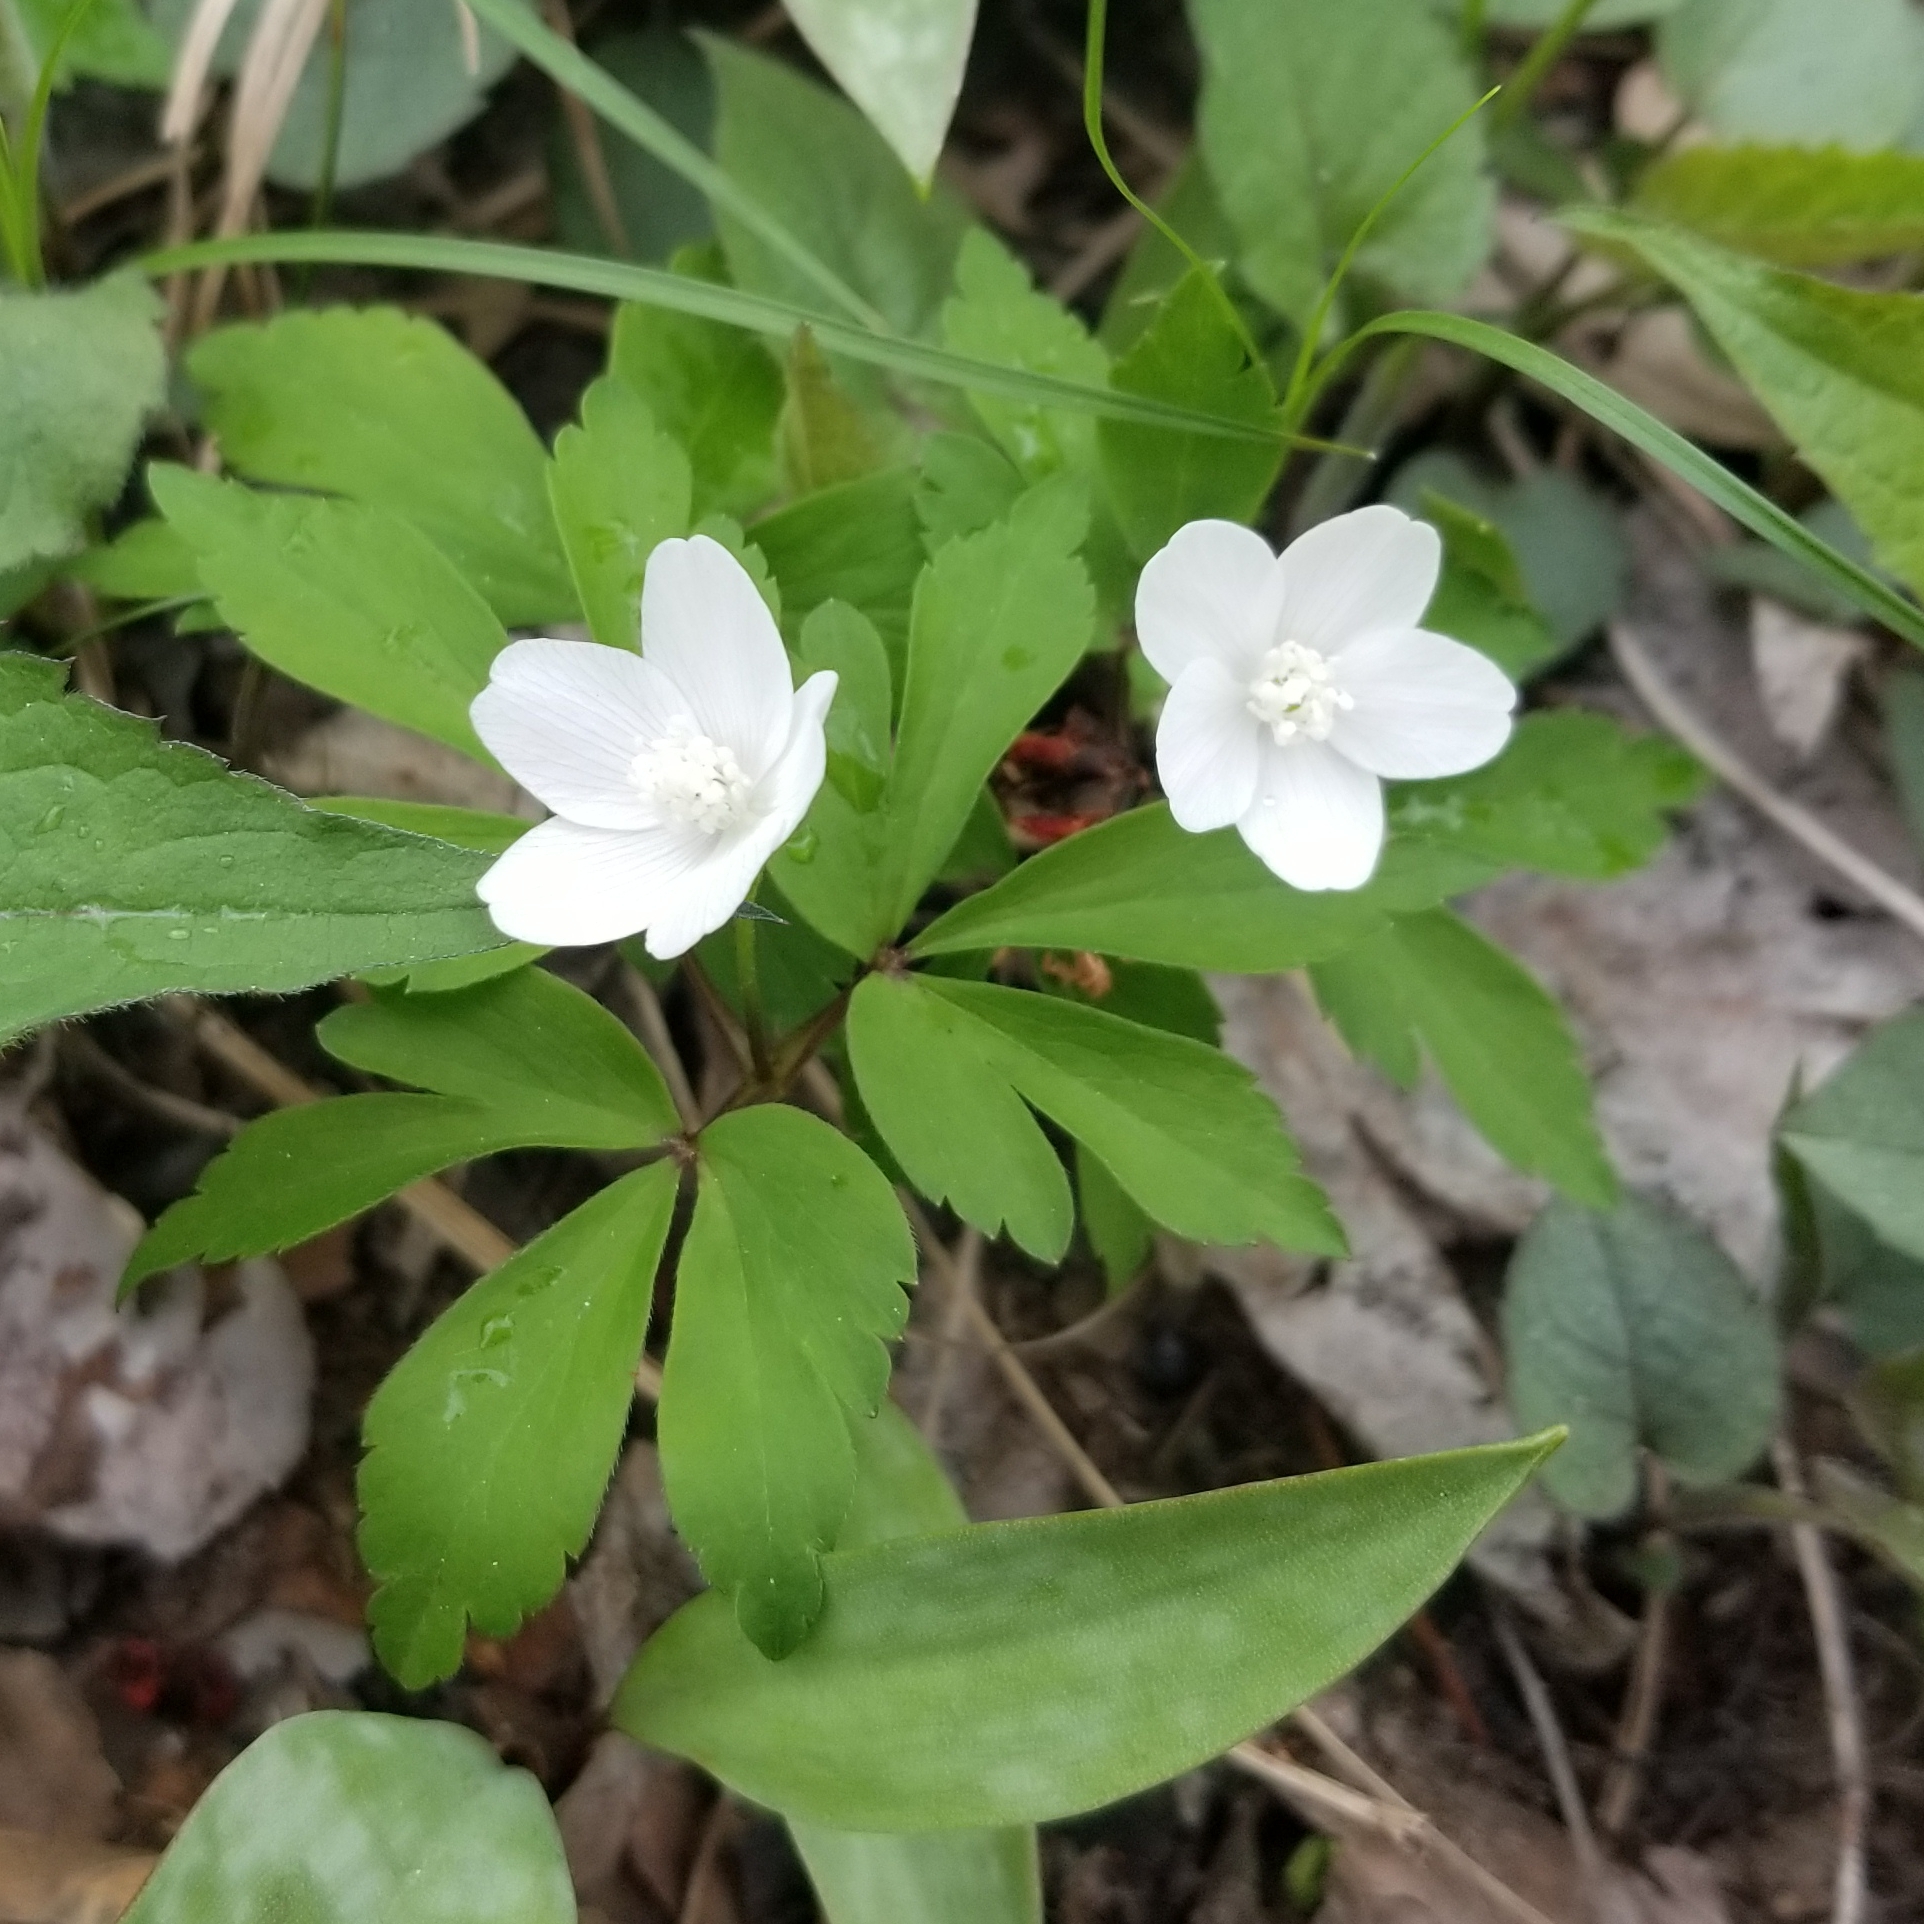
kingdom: Plantae
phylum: Tracheophyta
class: Magnoliopsida
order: Ranunculales
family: Ranunculaceae
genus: Anemone
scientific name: Anemone quinquefolia
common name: Wood anemone
